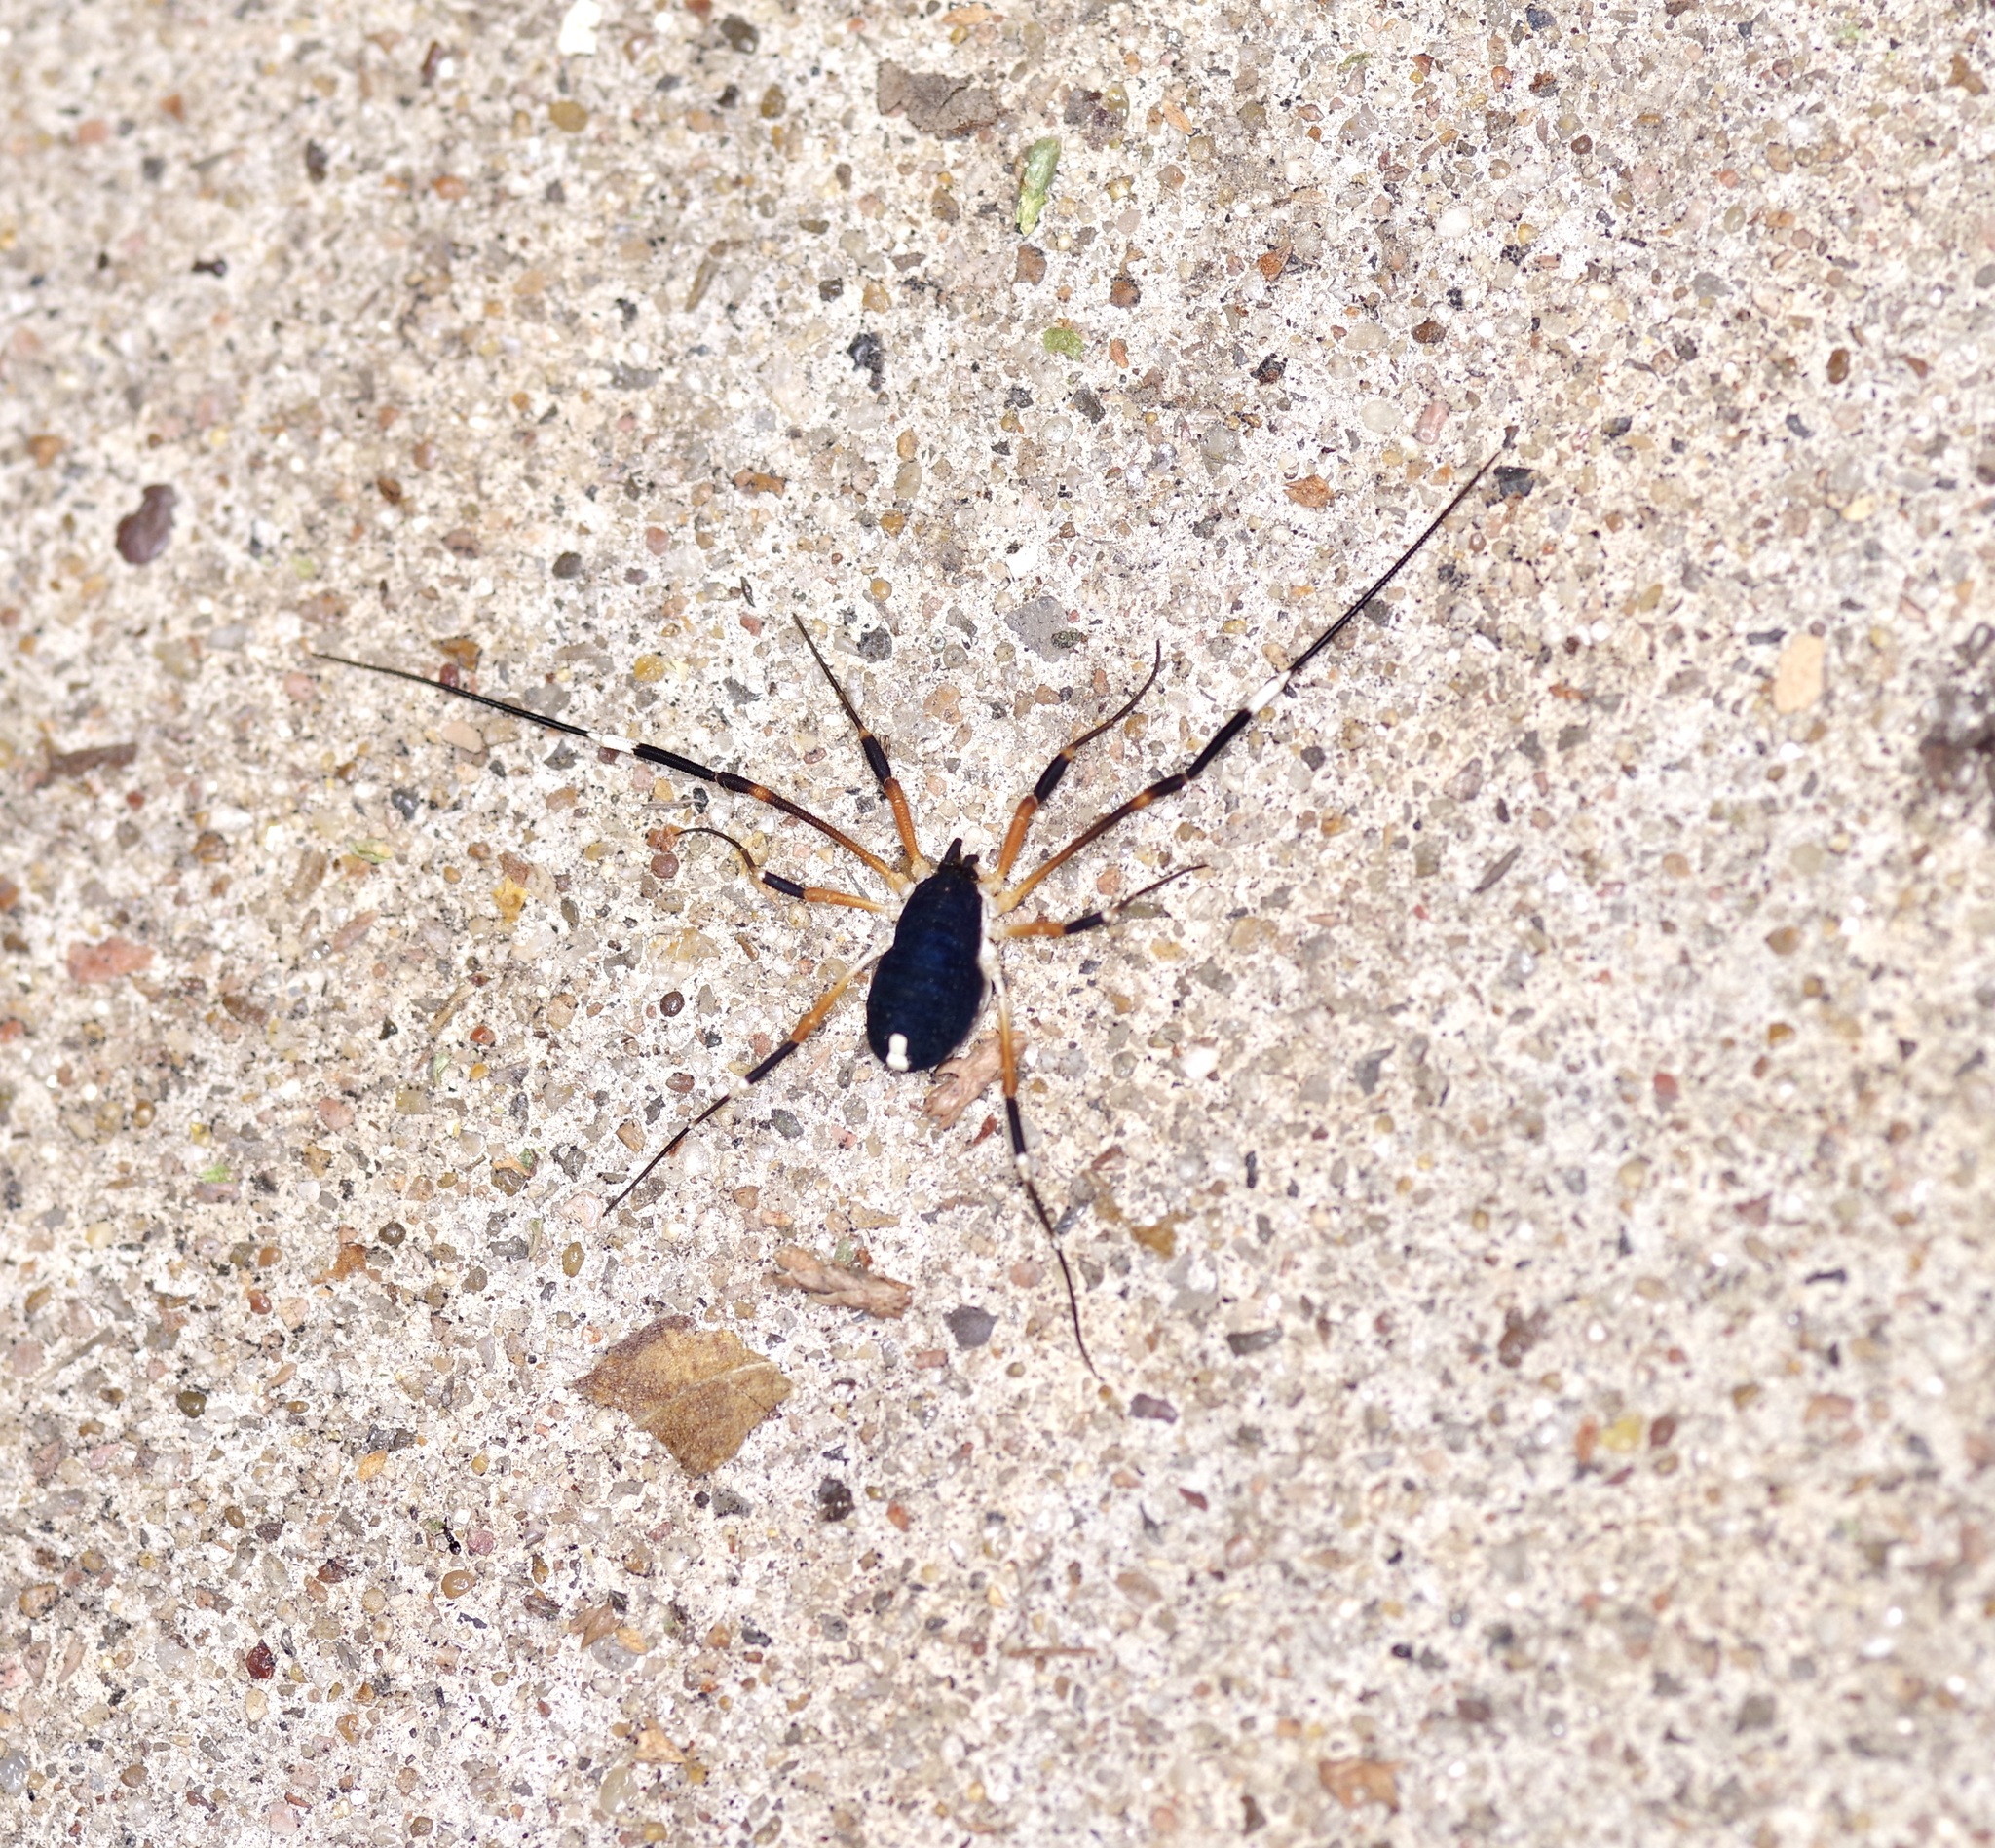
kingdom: Animalia
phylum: Arthropoda
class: Arachnida
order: Opiliones
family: Globipedidae
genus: Dalquestia
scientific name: Dalquestia formosa
